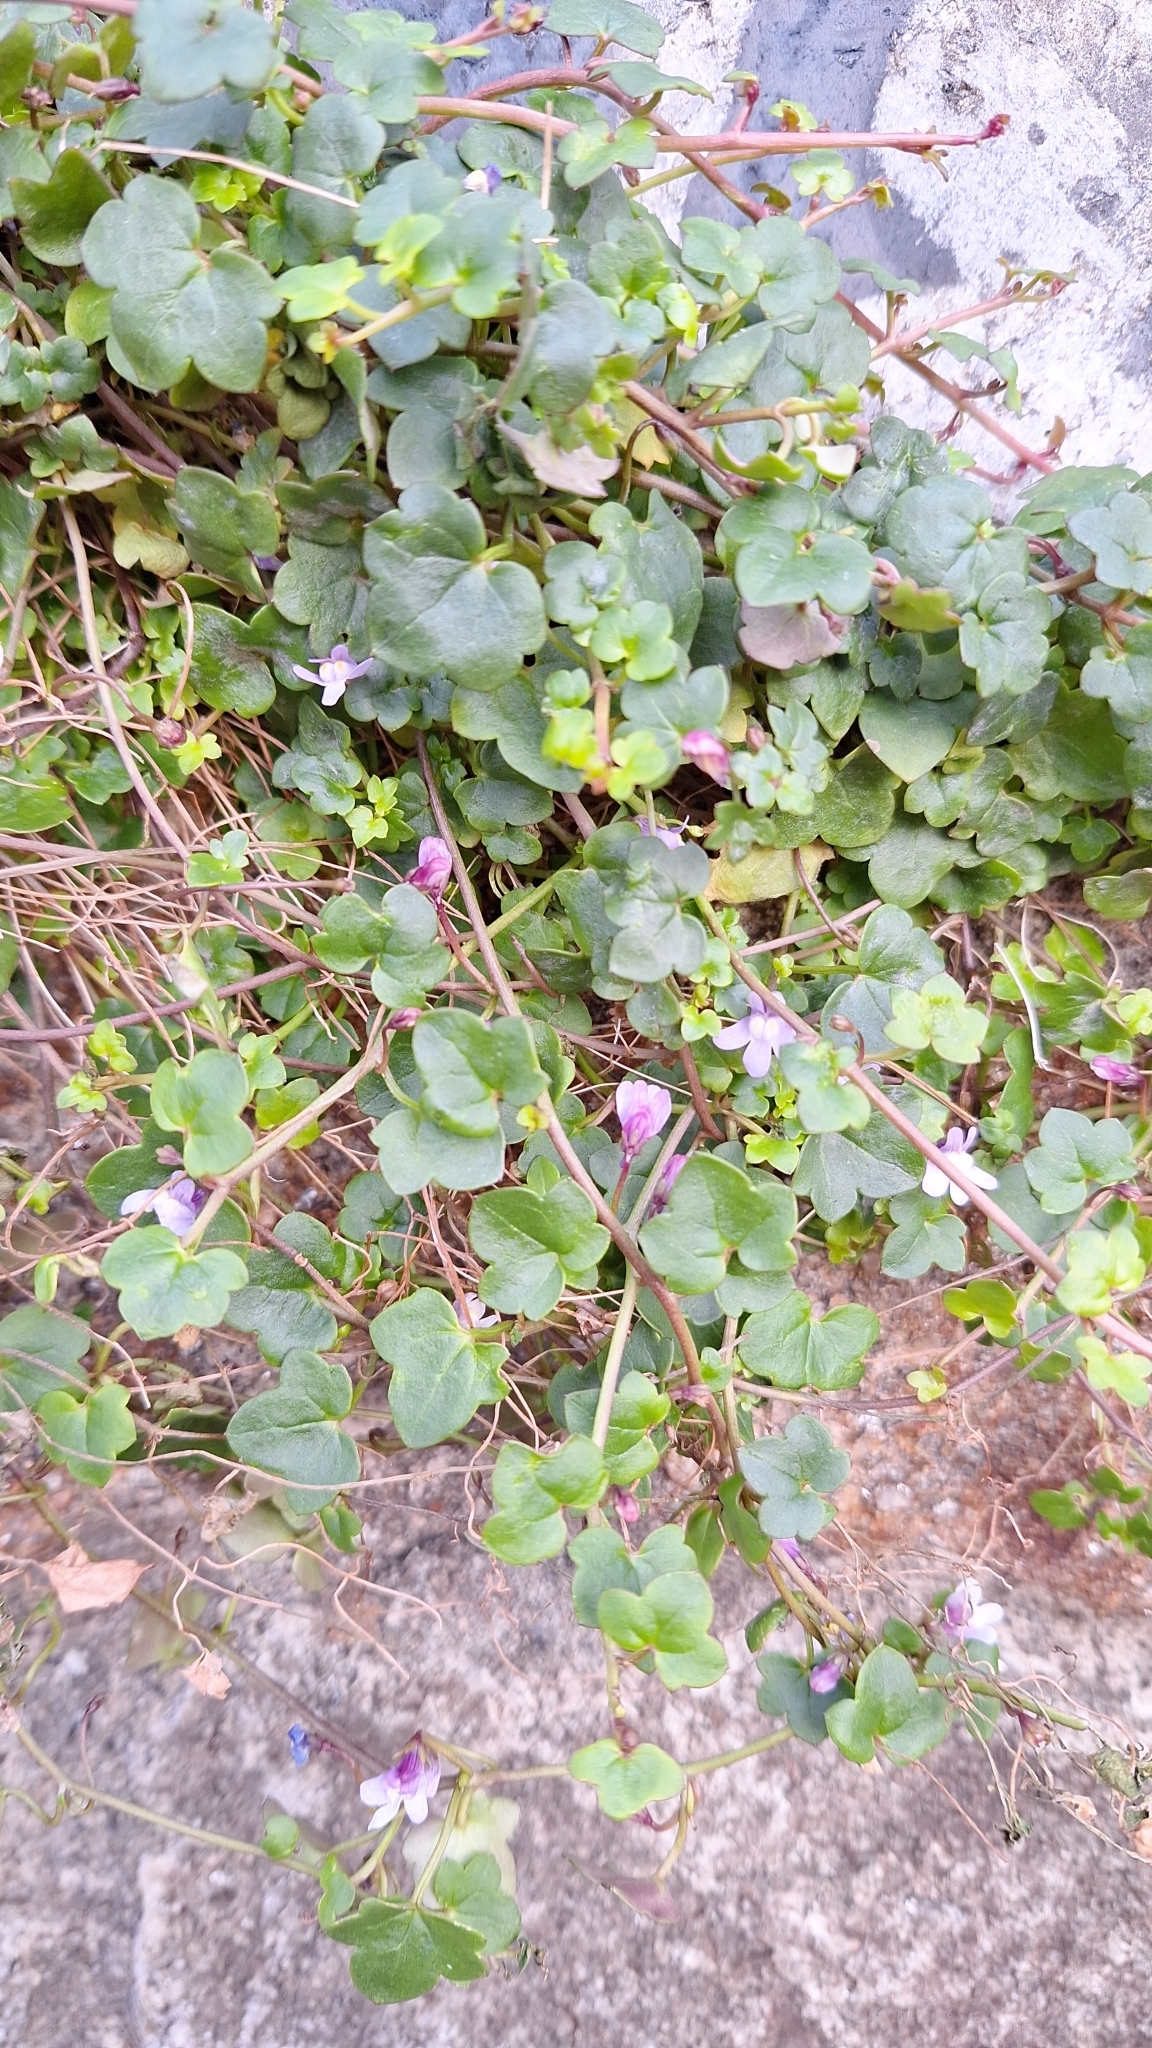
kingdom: Plantae
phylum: Tracheophyta
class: Magnoliopsida
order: Lamiales
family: Plantaginaceae
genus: Cymbalaria
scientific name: Cymbalaria muralis
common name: Ivy-leaved toadflax
